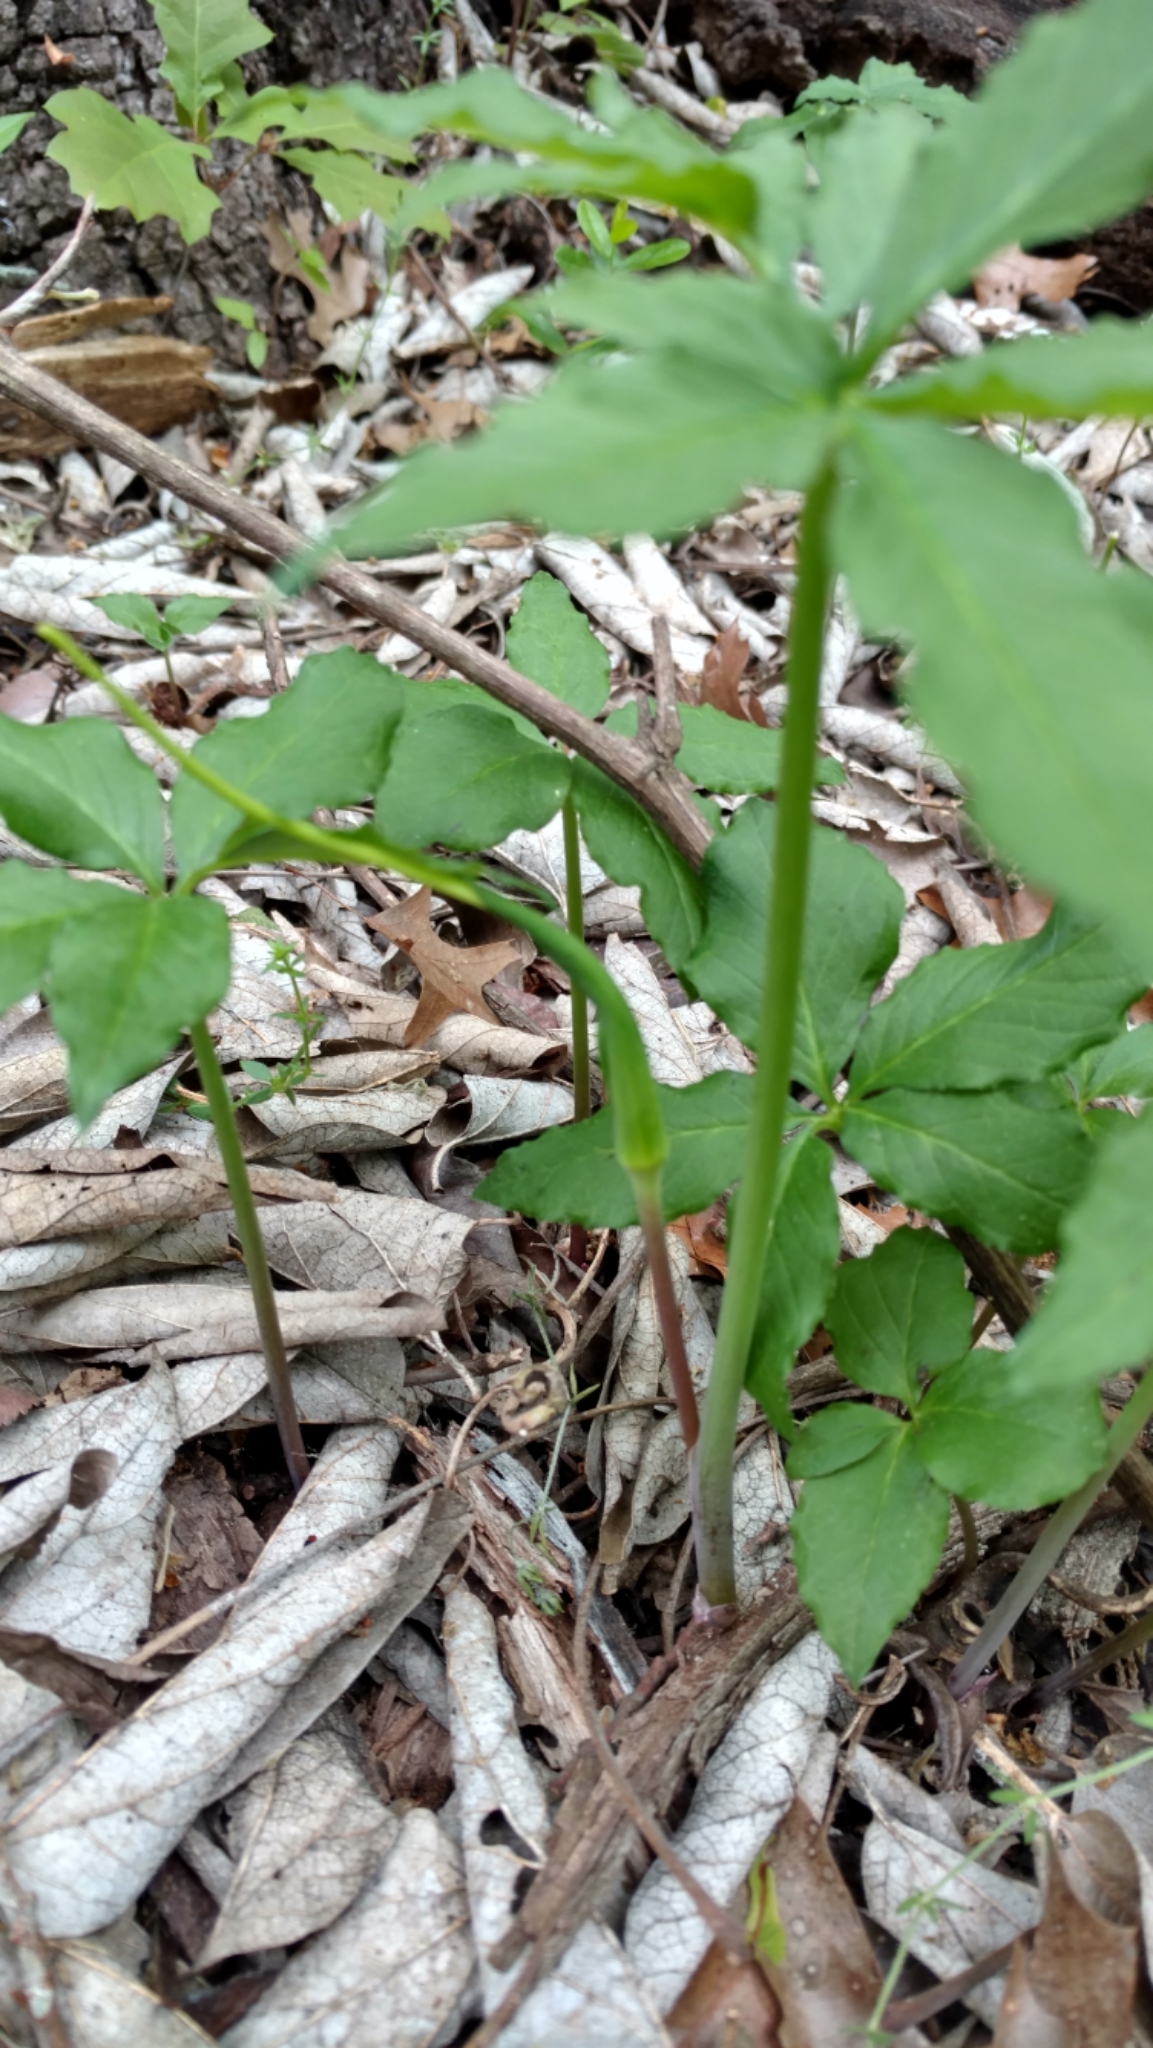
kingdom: Plantae
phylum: Tracheophyta
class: Liliopsida
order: Alismatales
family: Araceae
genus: Arisaema
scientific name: Arisaema dracontium
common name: Dragon-arum
